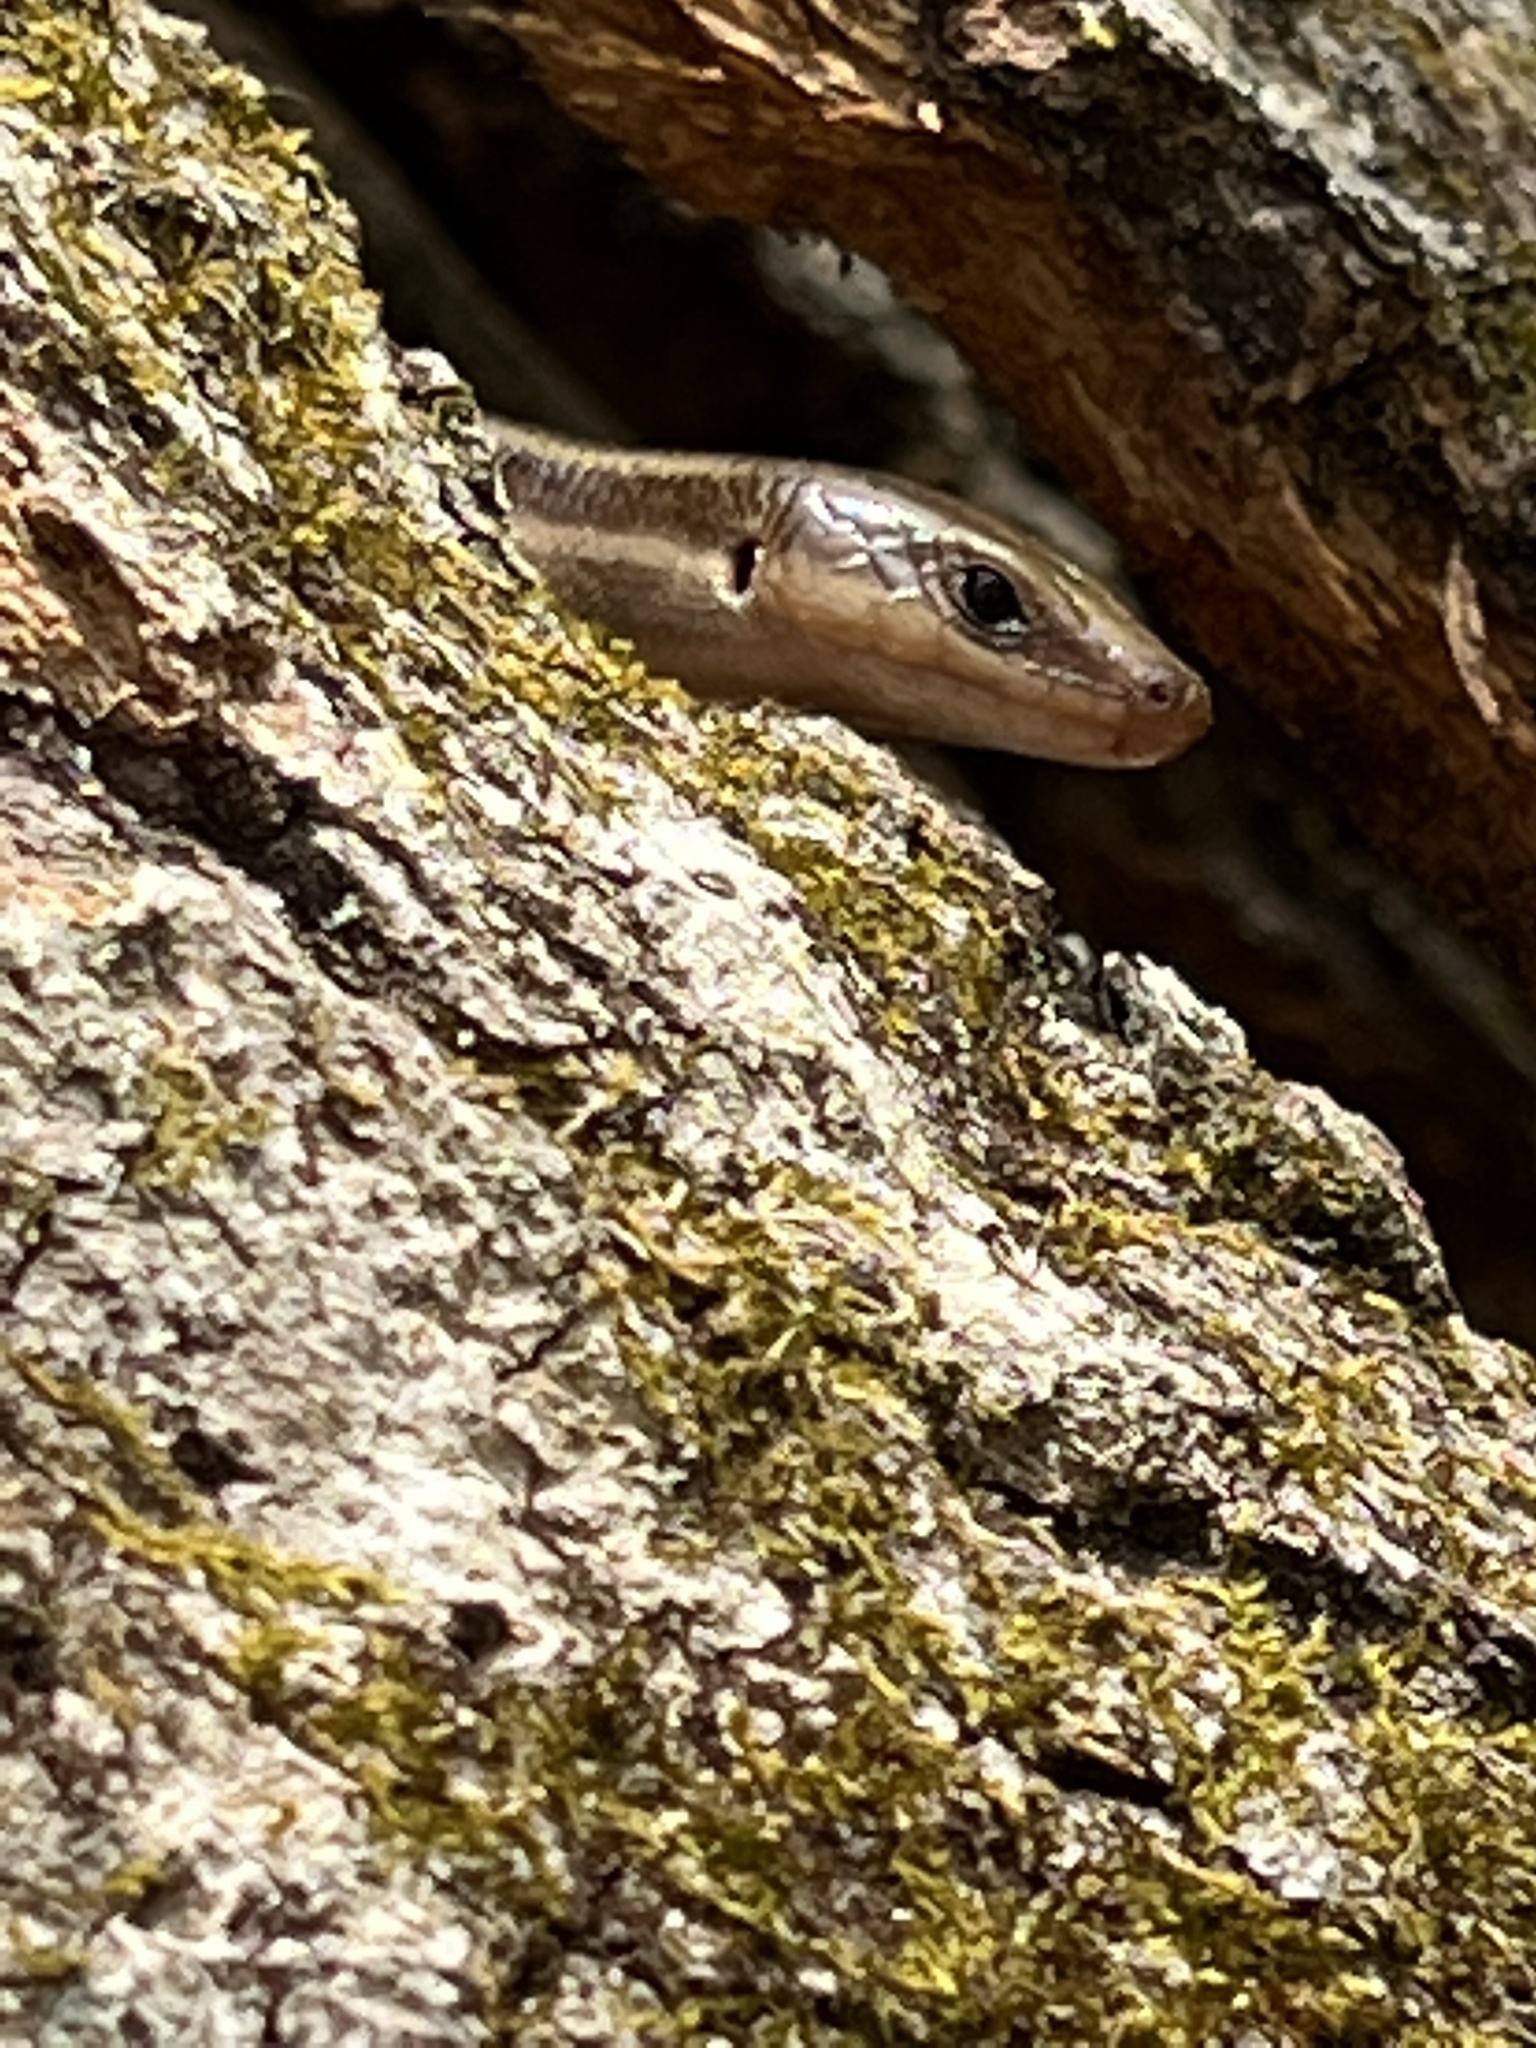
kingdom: Animalia
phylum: Chordata
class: Squamata
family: Scincidae
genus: Plestiodon
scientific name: Plestiodon fasciatus
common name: Five-lined skink
